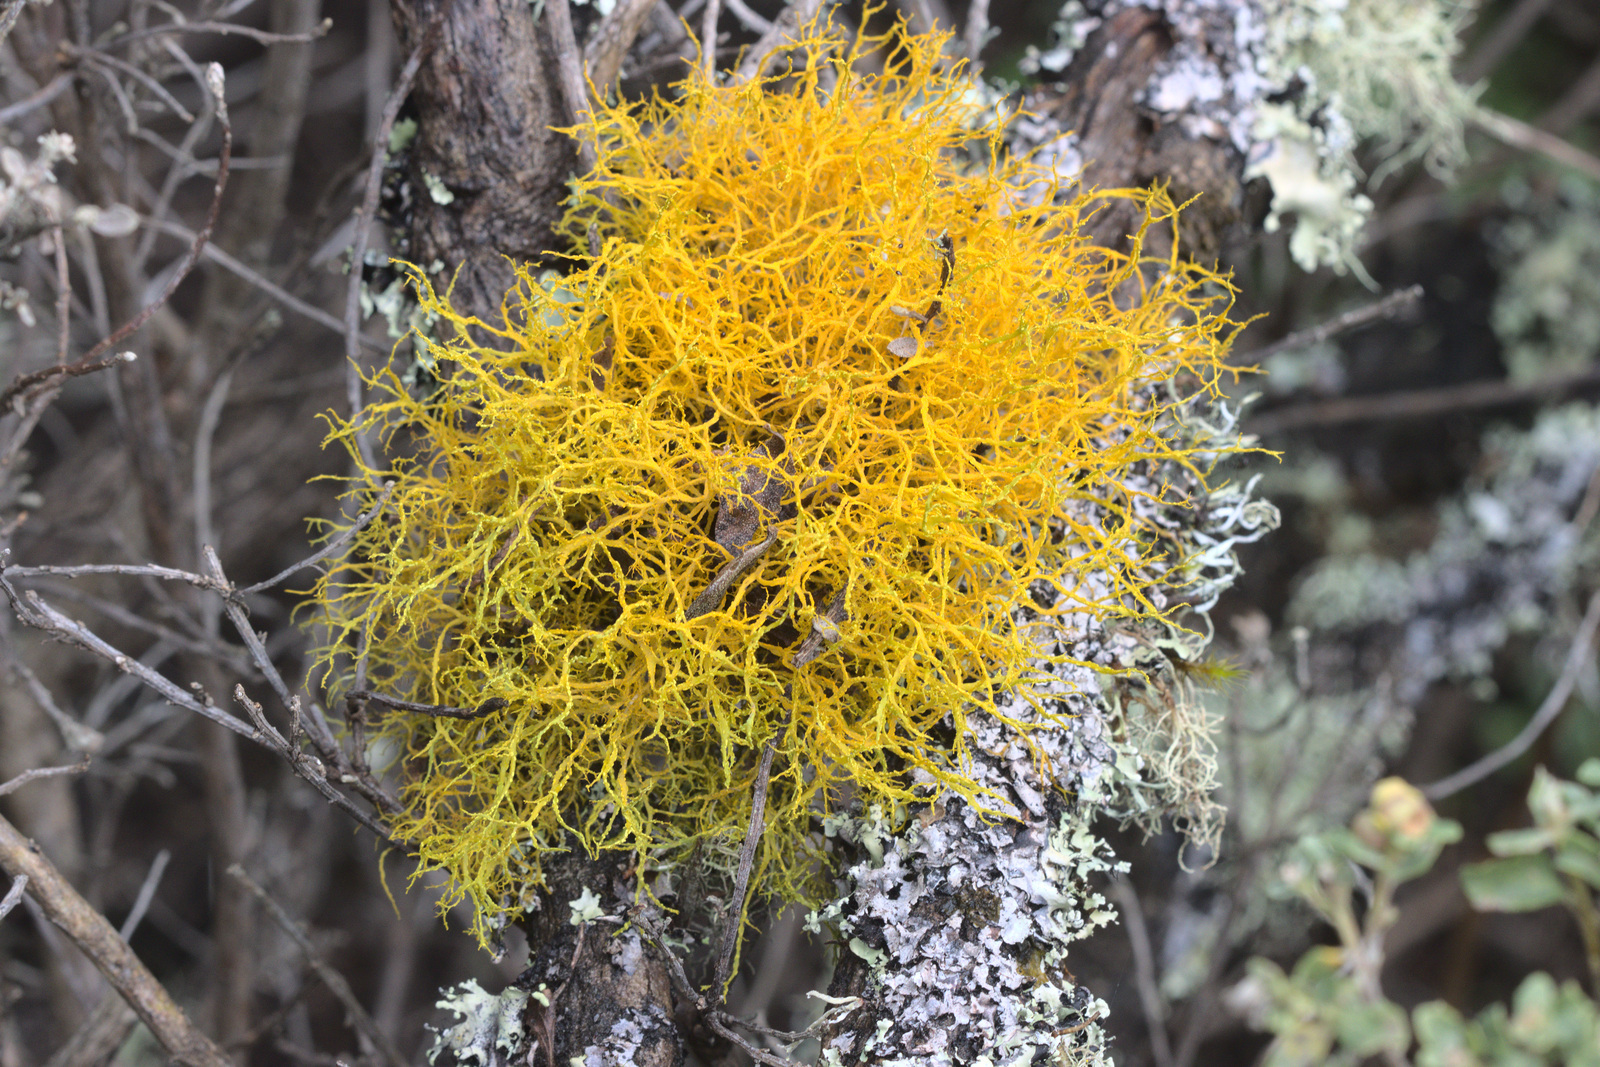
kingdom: Fungi
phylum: Ascomycota
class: Lecanoromycetes
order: Teloschistales
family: Teloschistaceae
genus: Teloschistes
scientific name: Teloschistes flavicans
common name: Golden hair-lichen
